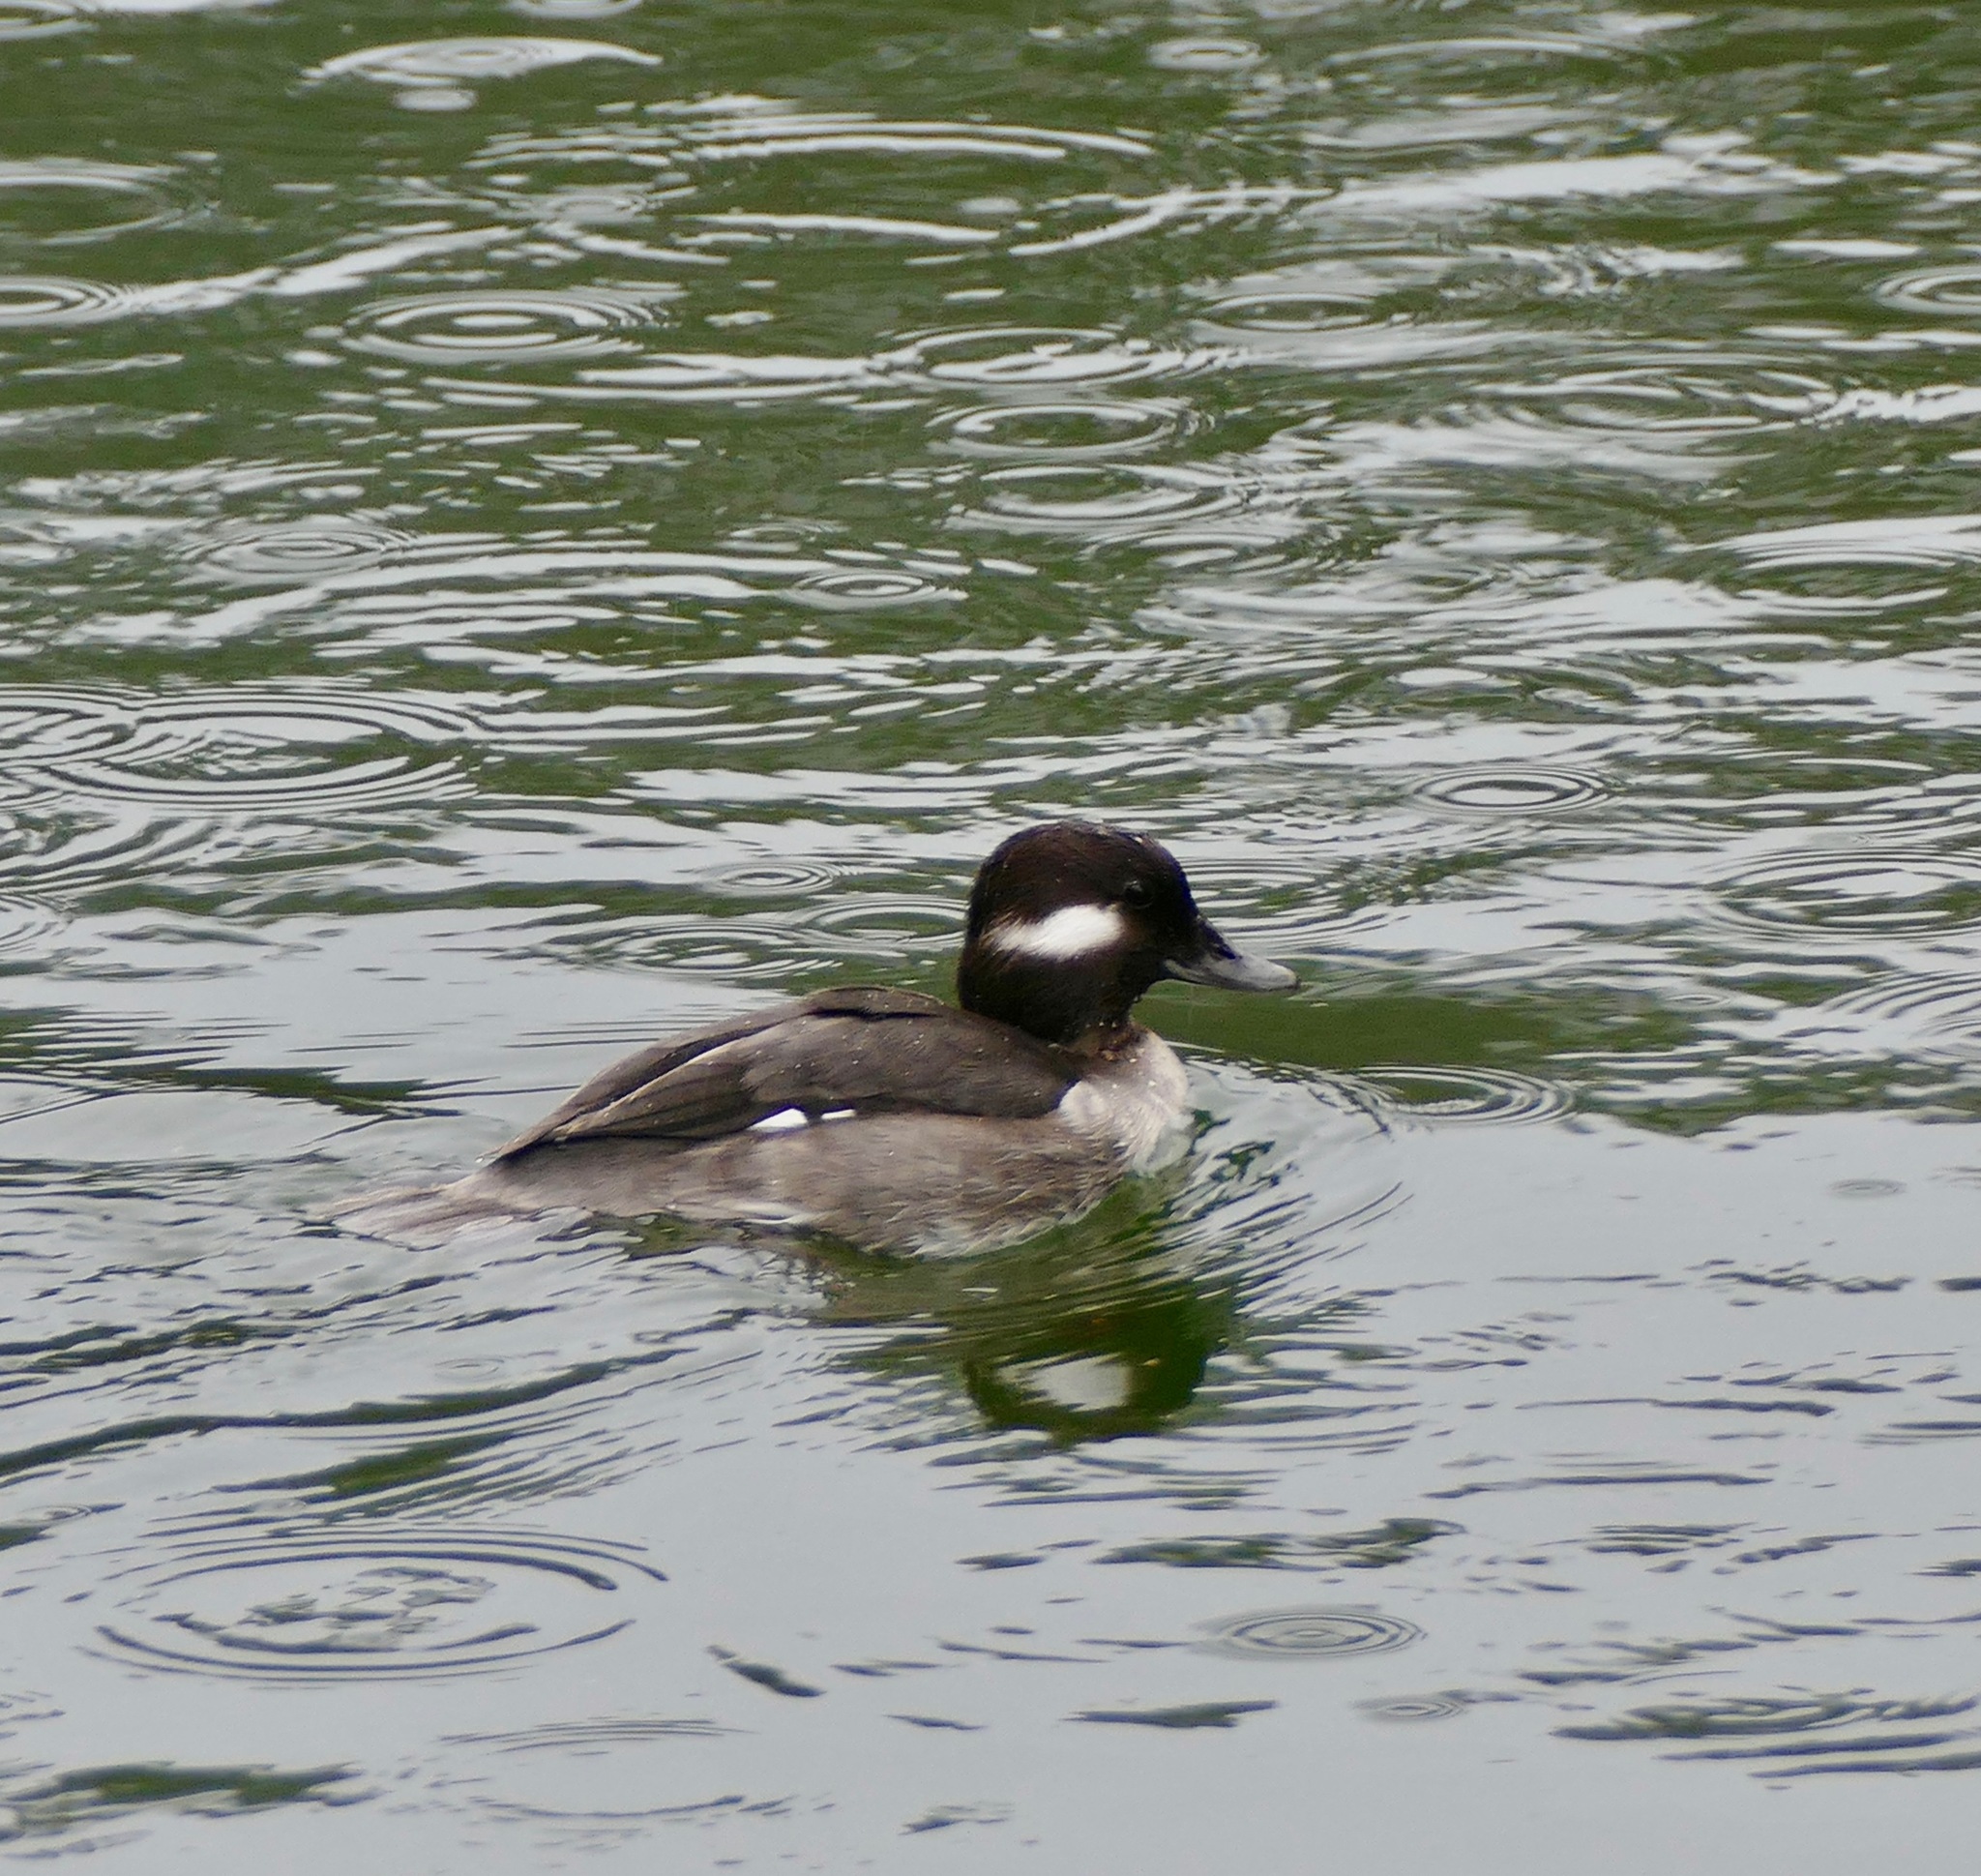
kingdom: Animalia
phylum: Chordata
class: Aves
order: Anseriformes
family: Anatidae
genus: Bucephala
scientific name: Bucephala albeola
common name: Bufflehead
